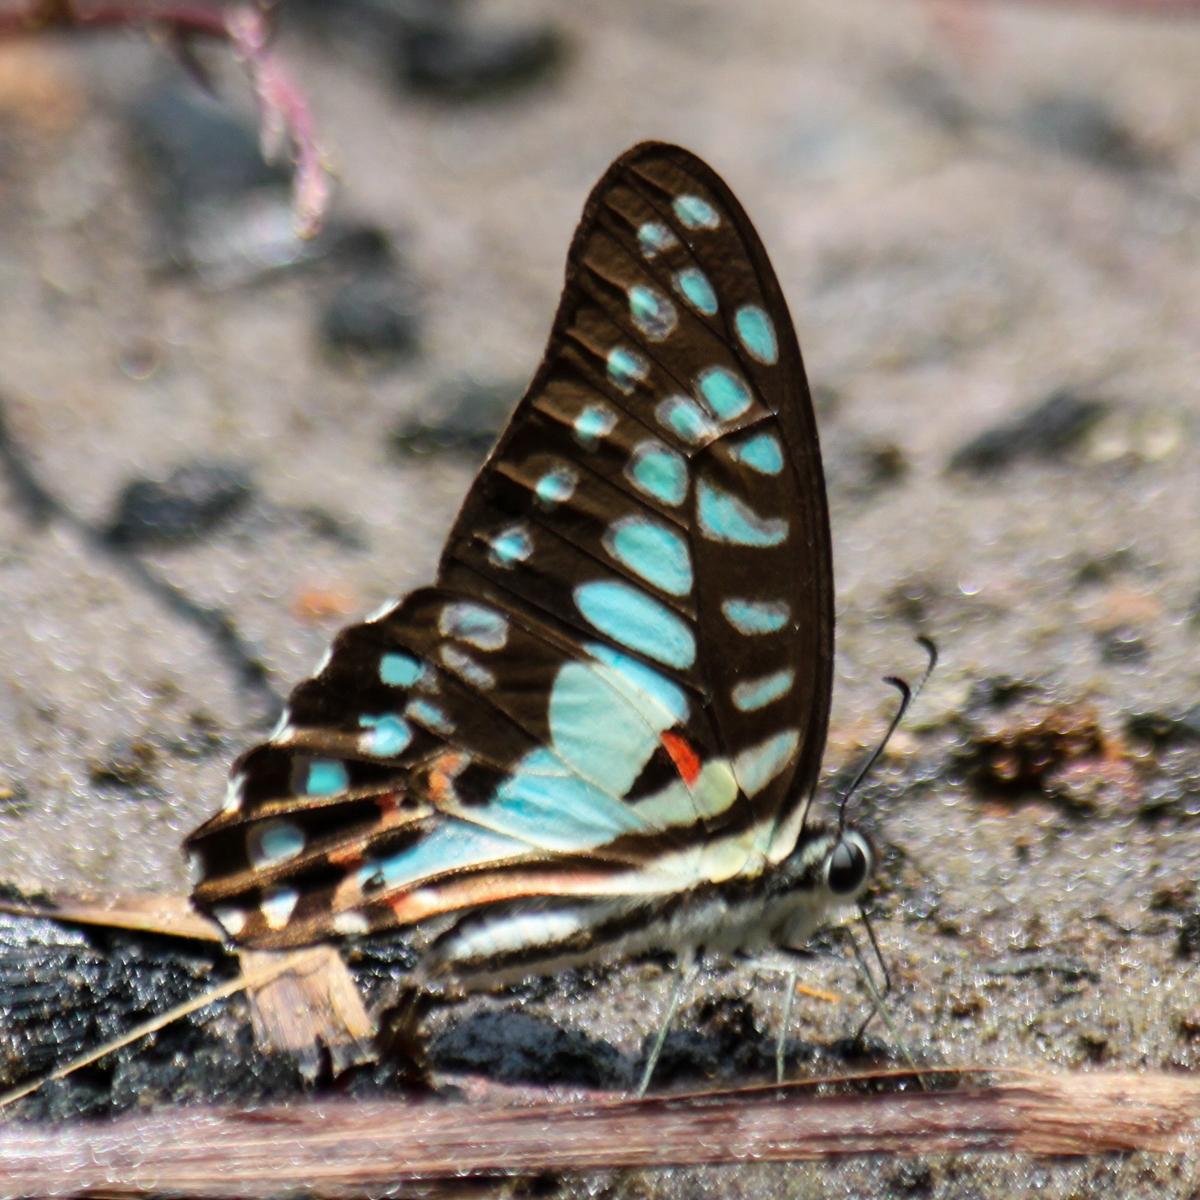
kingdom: Animalia
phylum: Arthropoda
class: Insecta
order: Lepidoptera
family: Papilionidae
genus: Graphium
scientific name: Graphium doson
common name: Common jay
